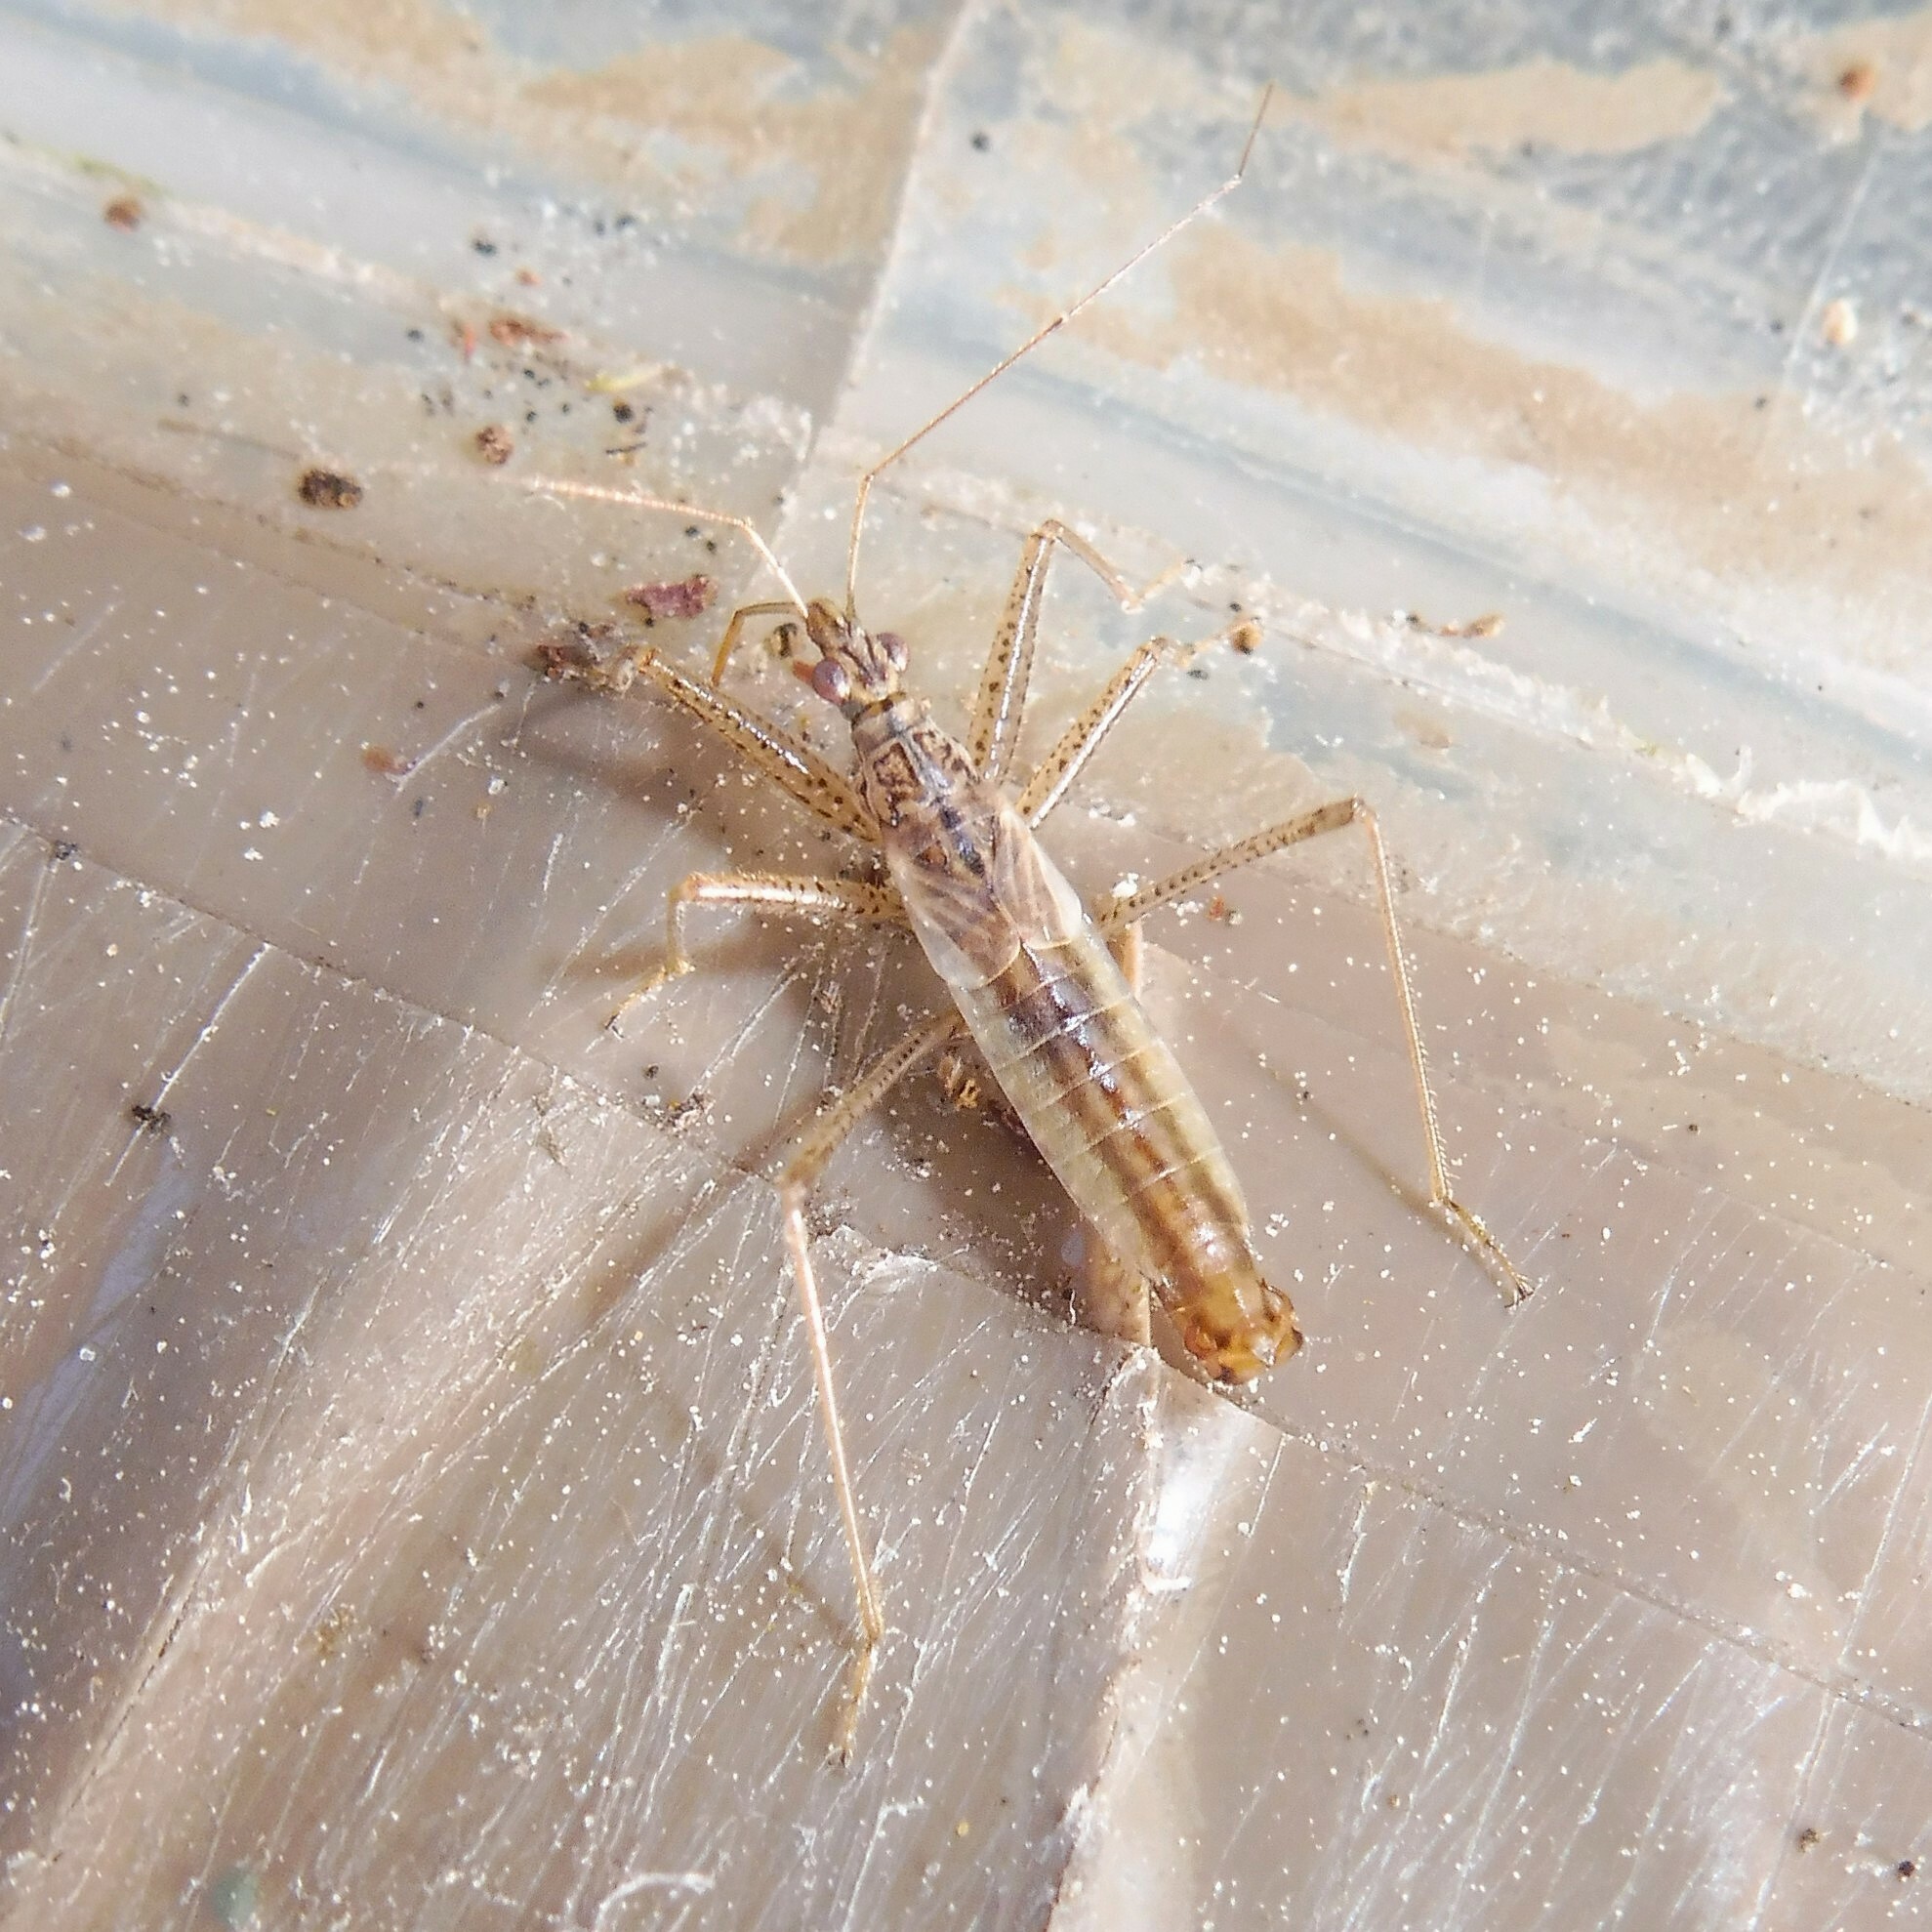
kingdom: Animalia
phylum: Arthropoda
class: Insecta
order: Hemiptera
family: Nabidae
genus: Nabis
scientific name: Nabis limbatus
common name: Marsh damselbug
